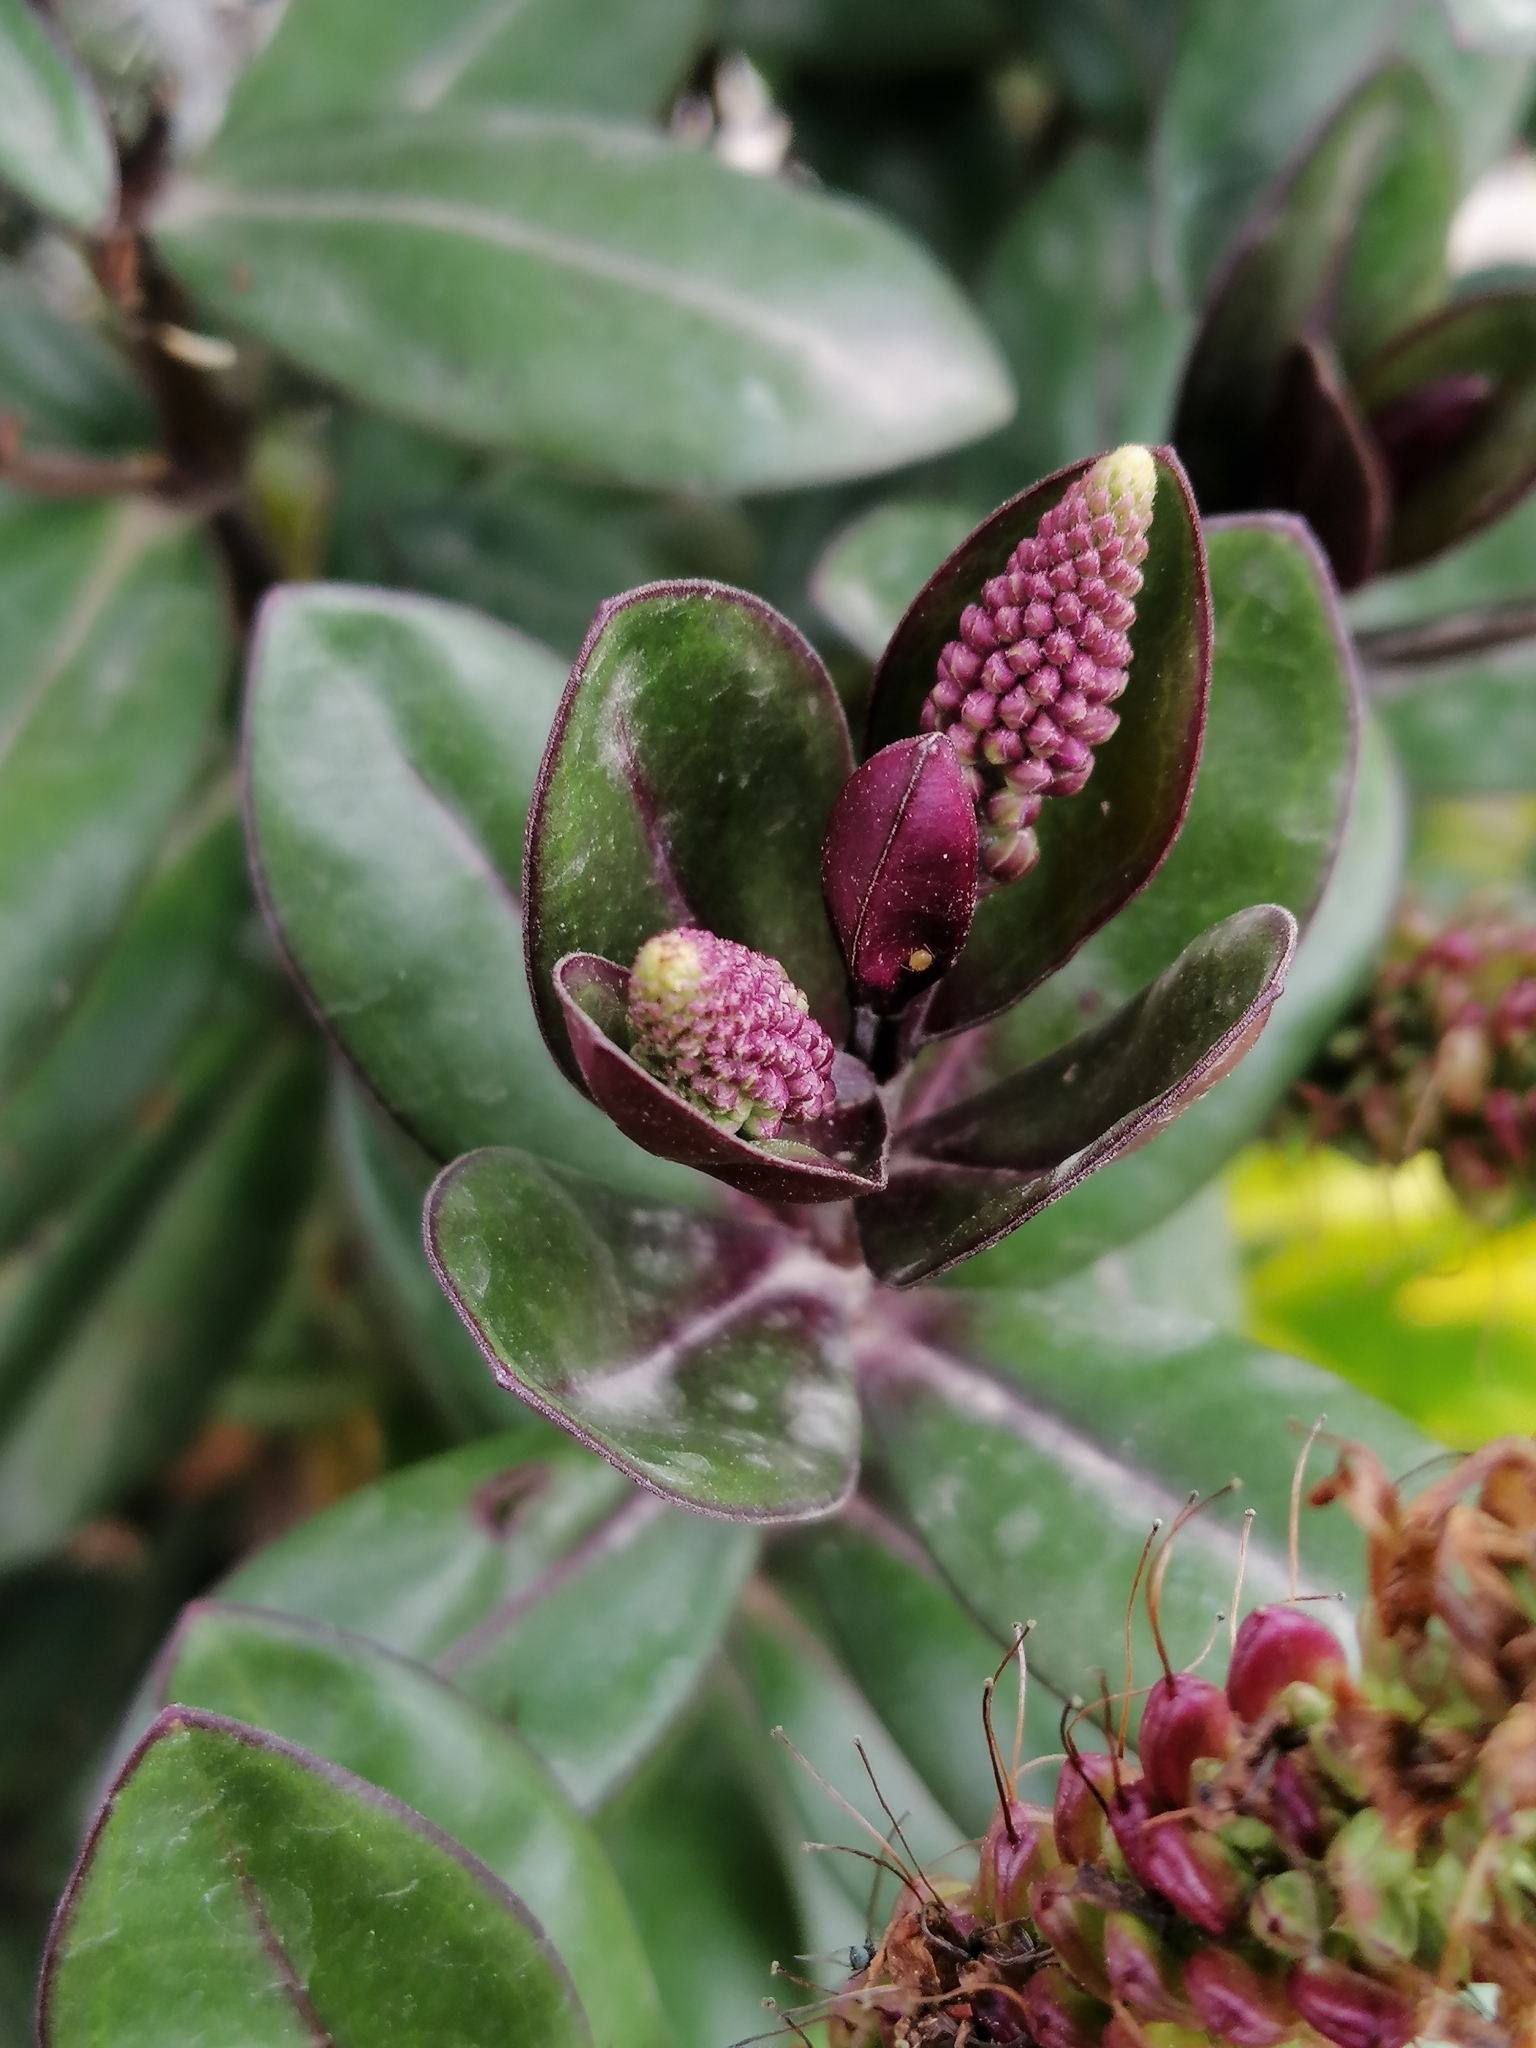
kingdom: Plantae
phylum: Tracheophyta
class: Magnoliopsida
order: Lamiales
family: Plantaginaceae
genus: Veronica
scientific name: Veronica franciscana
